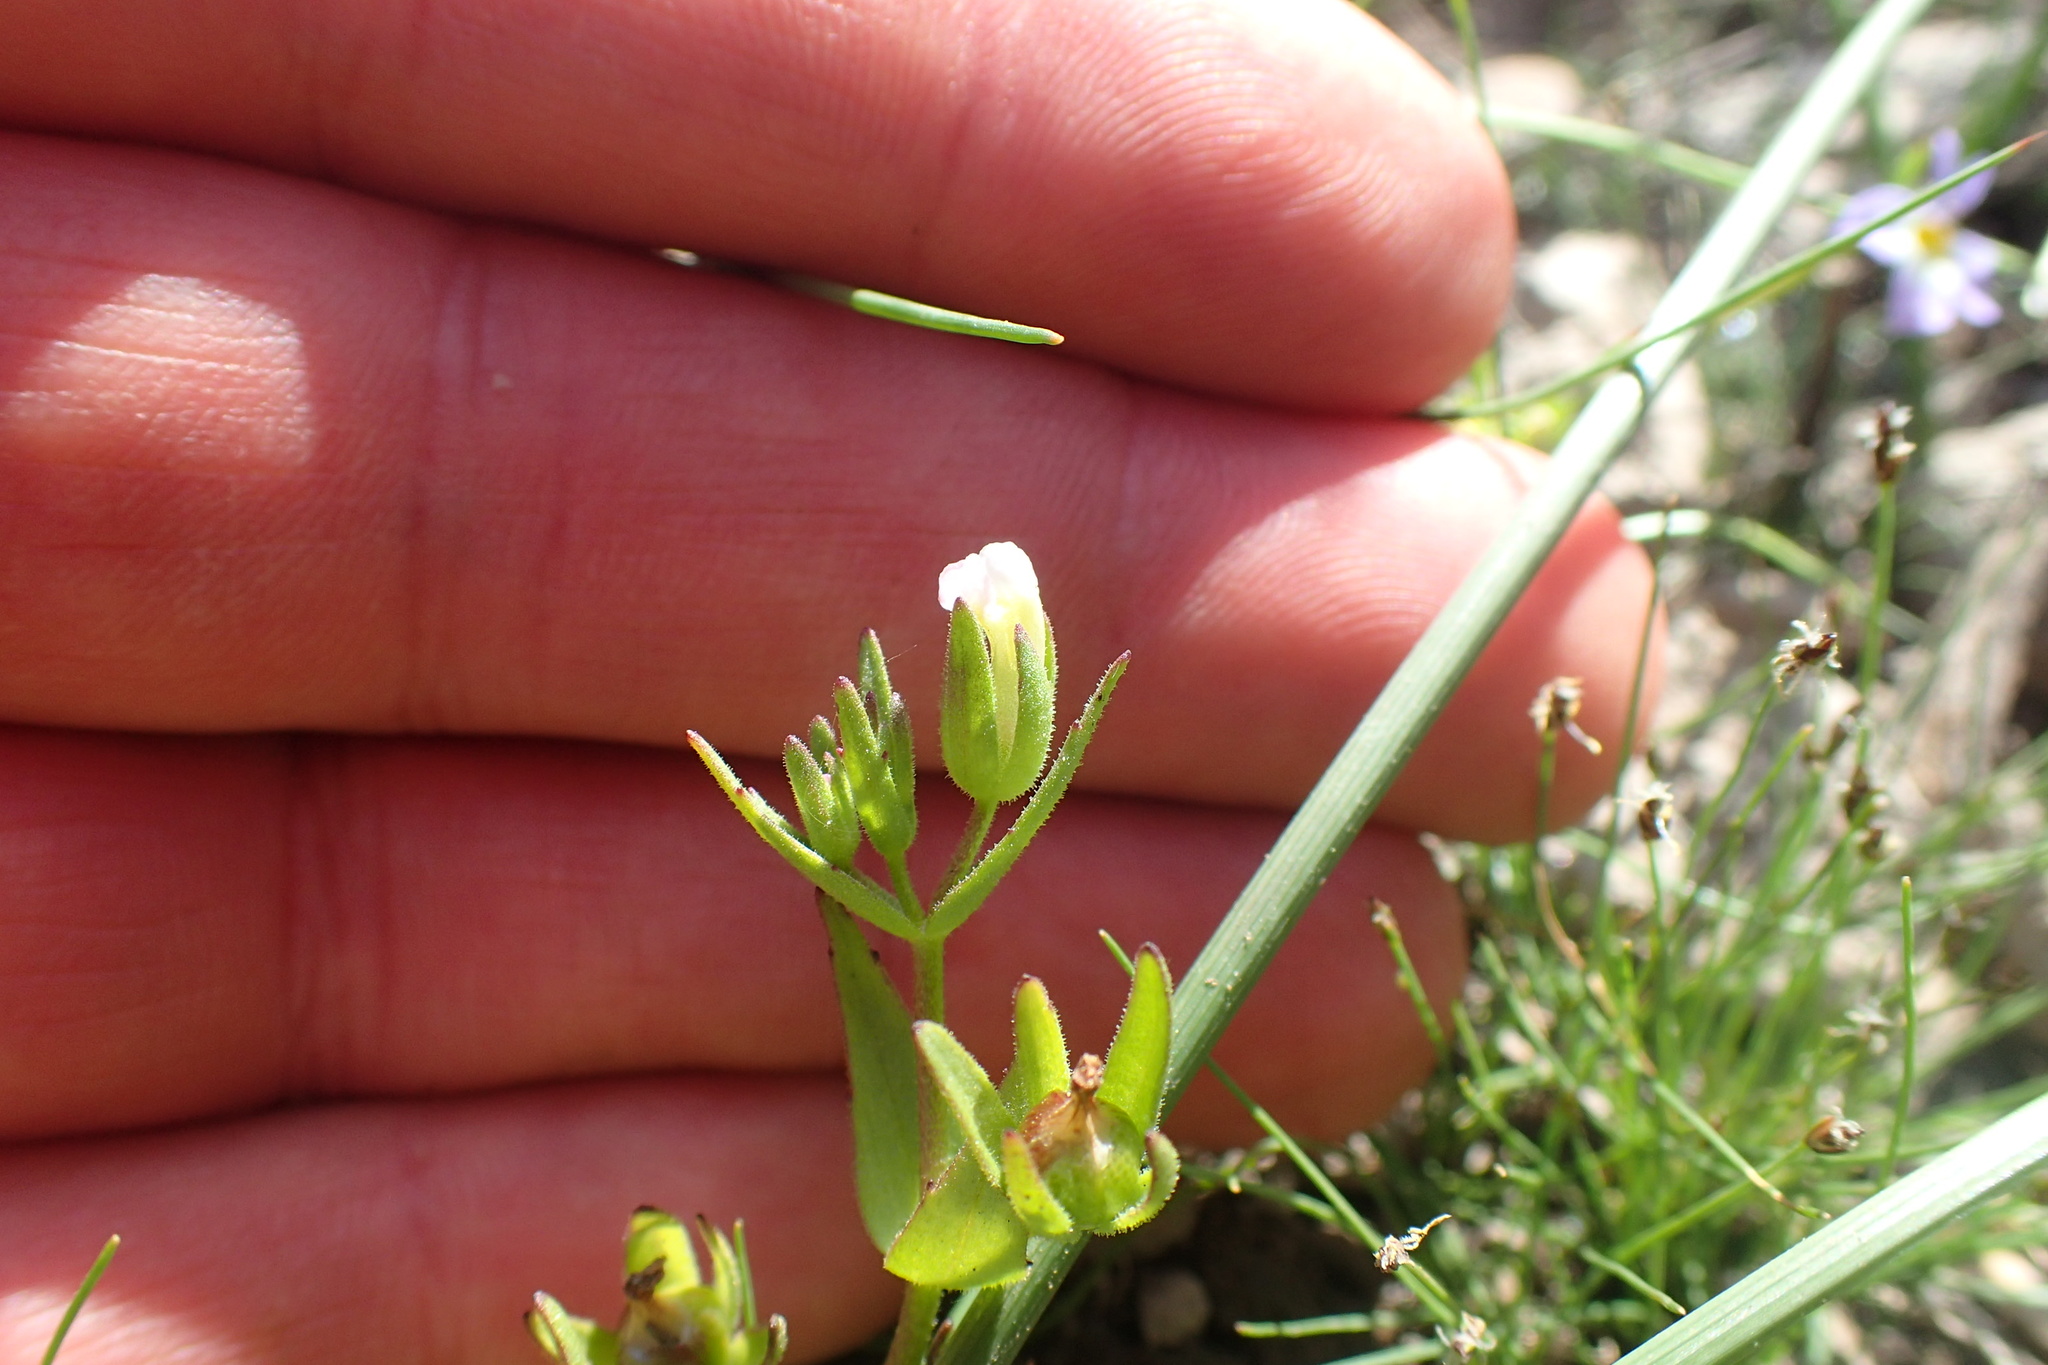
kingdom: Plantae
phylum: Tracheophyta
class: Magnoliopsida
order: Lamiales
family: Plantaginaceae
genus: Gratiola
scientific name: Gratiola ebracteata
